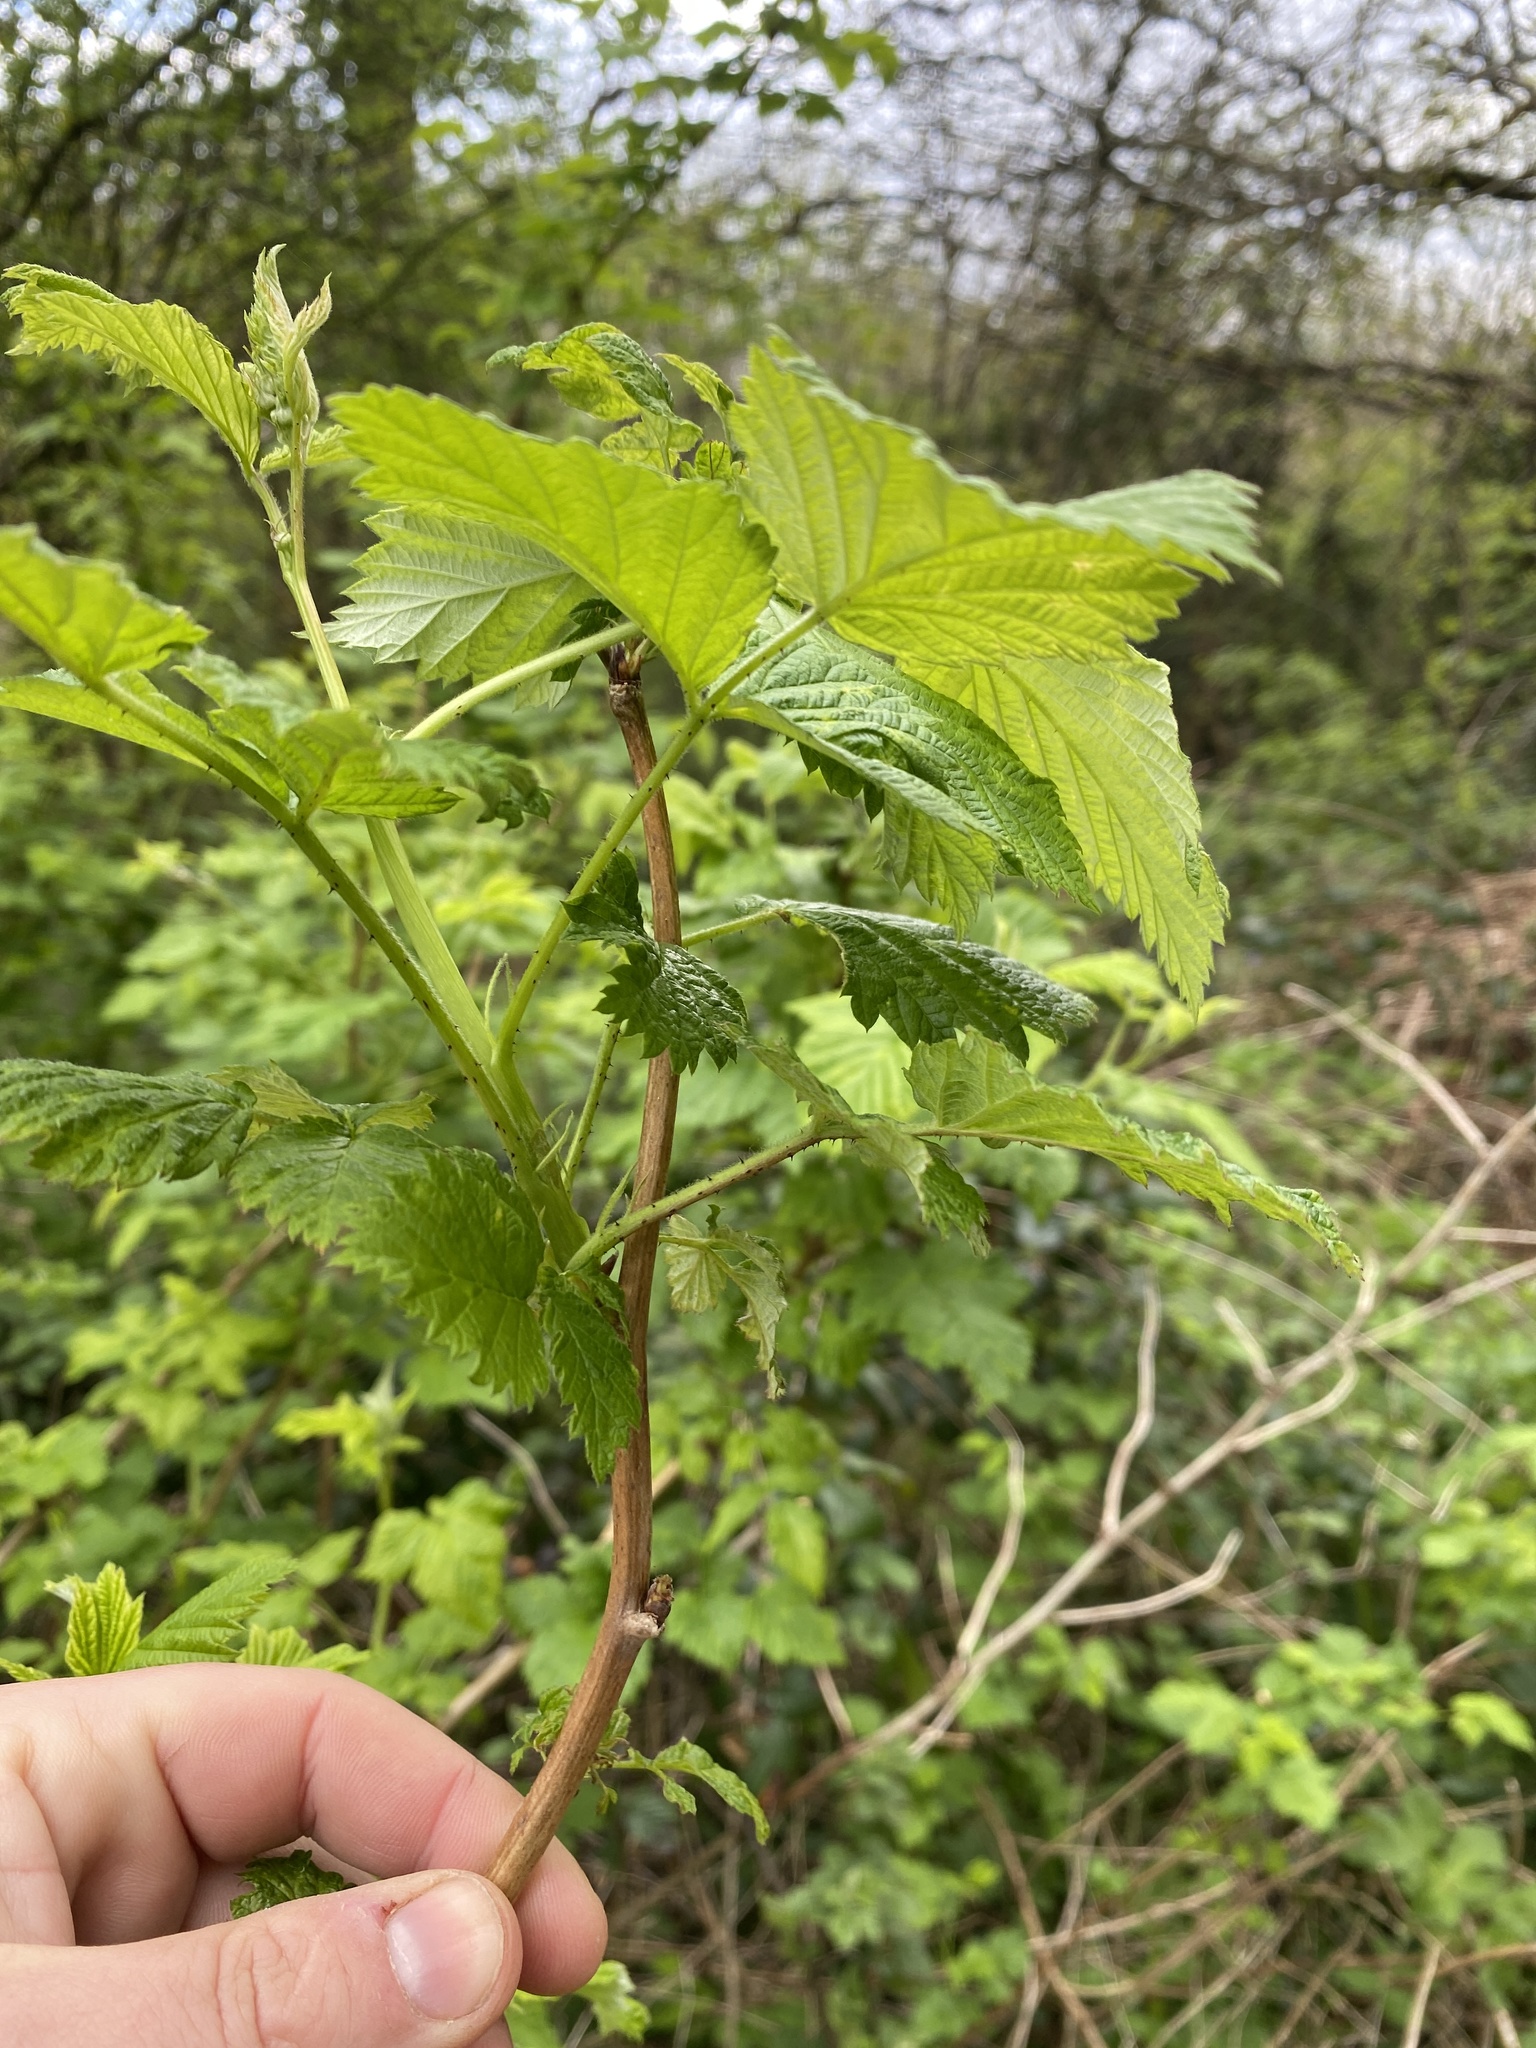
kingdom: Plantae
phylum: Tracheophyta
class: Magnoliopsida
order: Rosales
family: Rosaceae
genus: Rubus
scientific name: Rubus idaeus
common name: Raspberry
